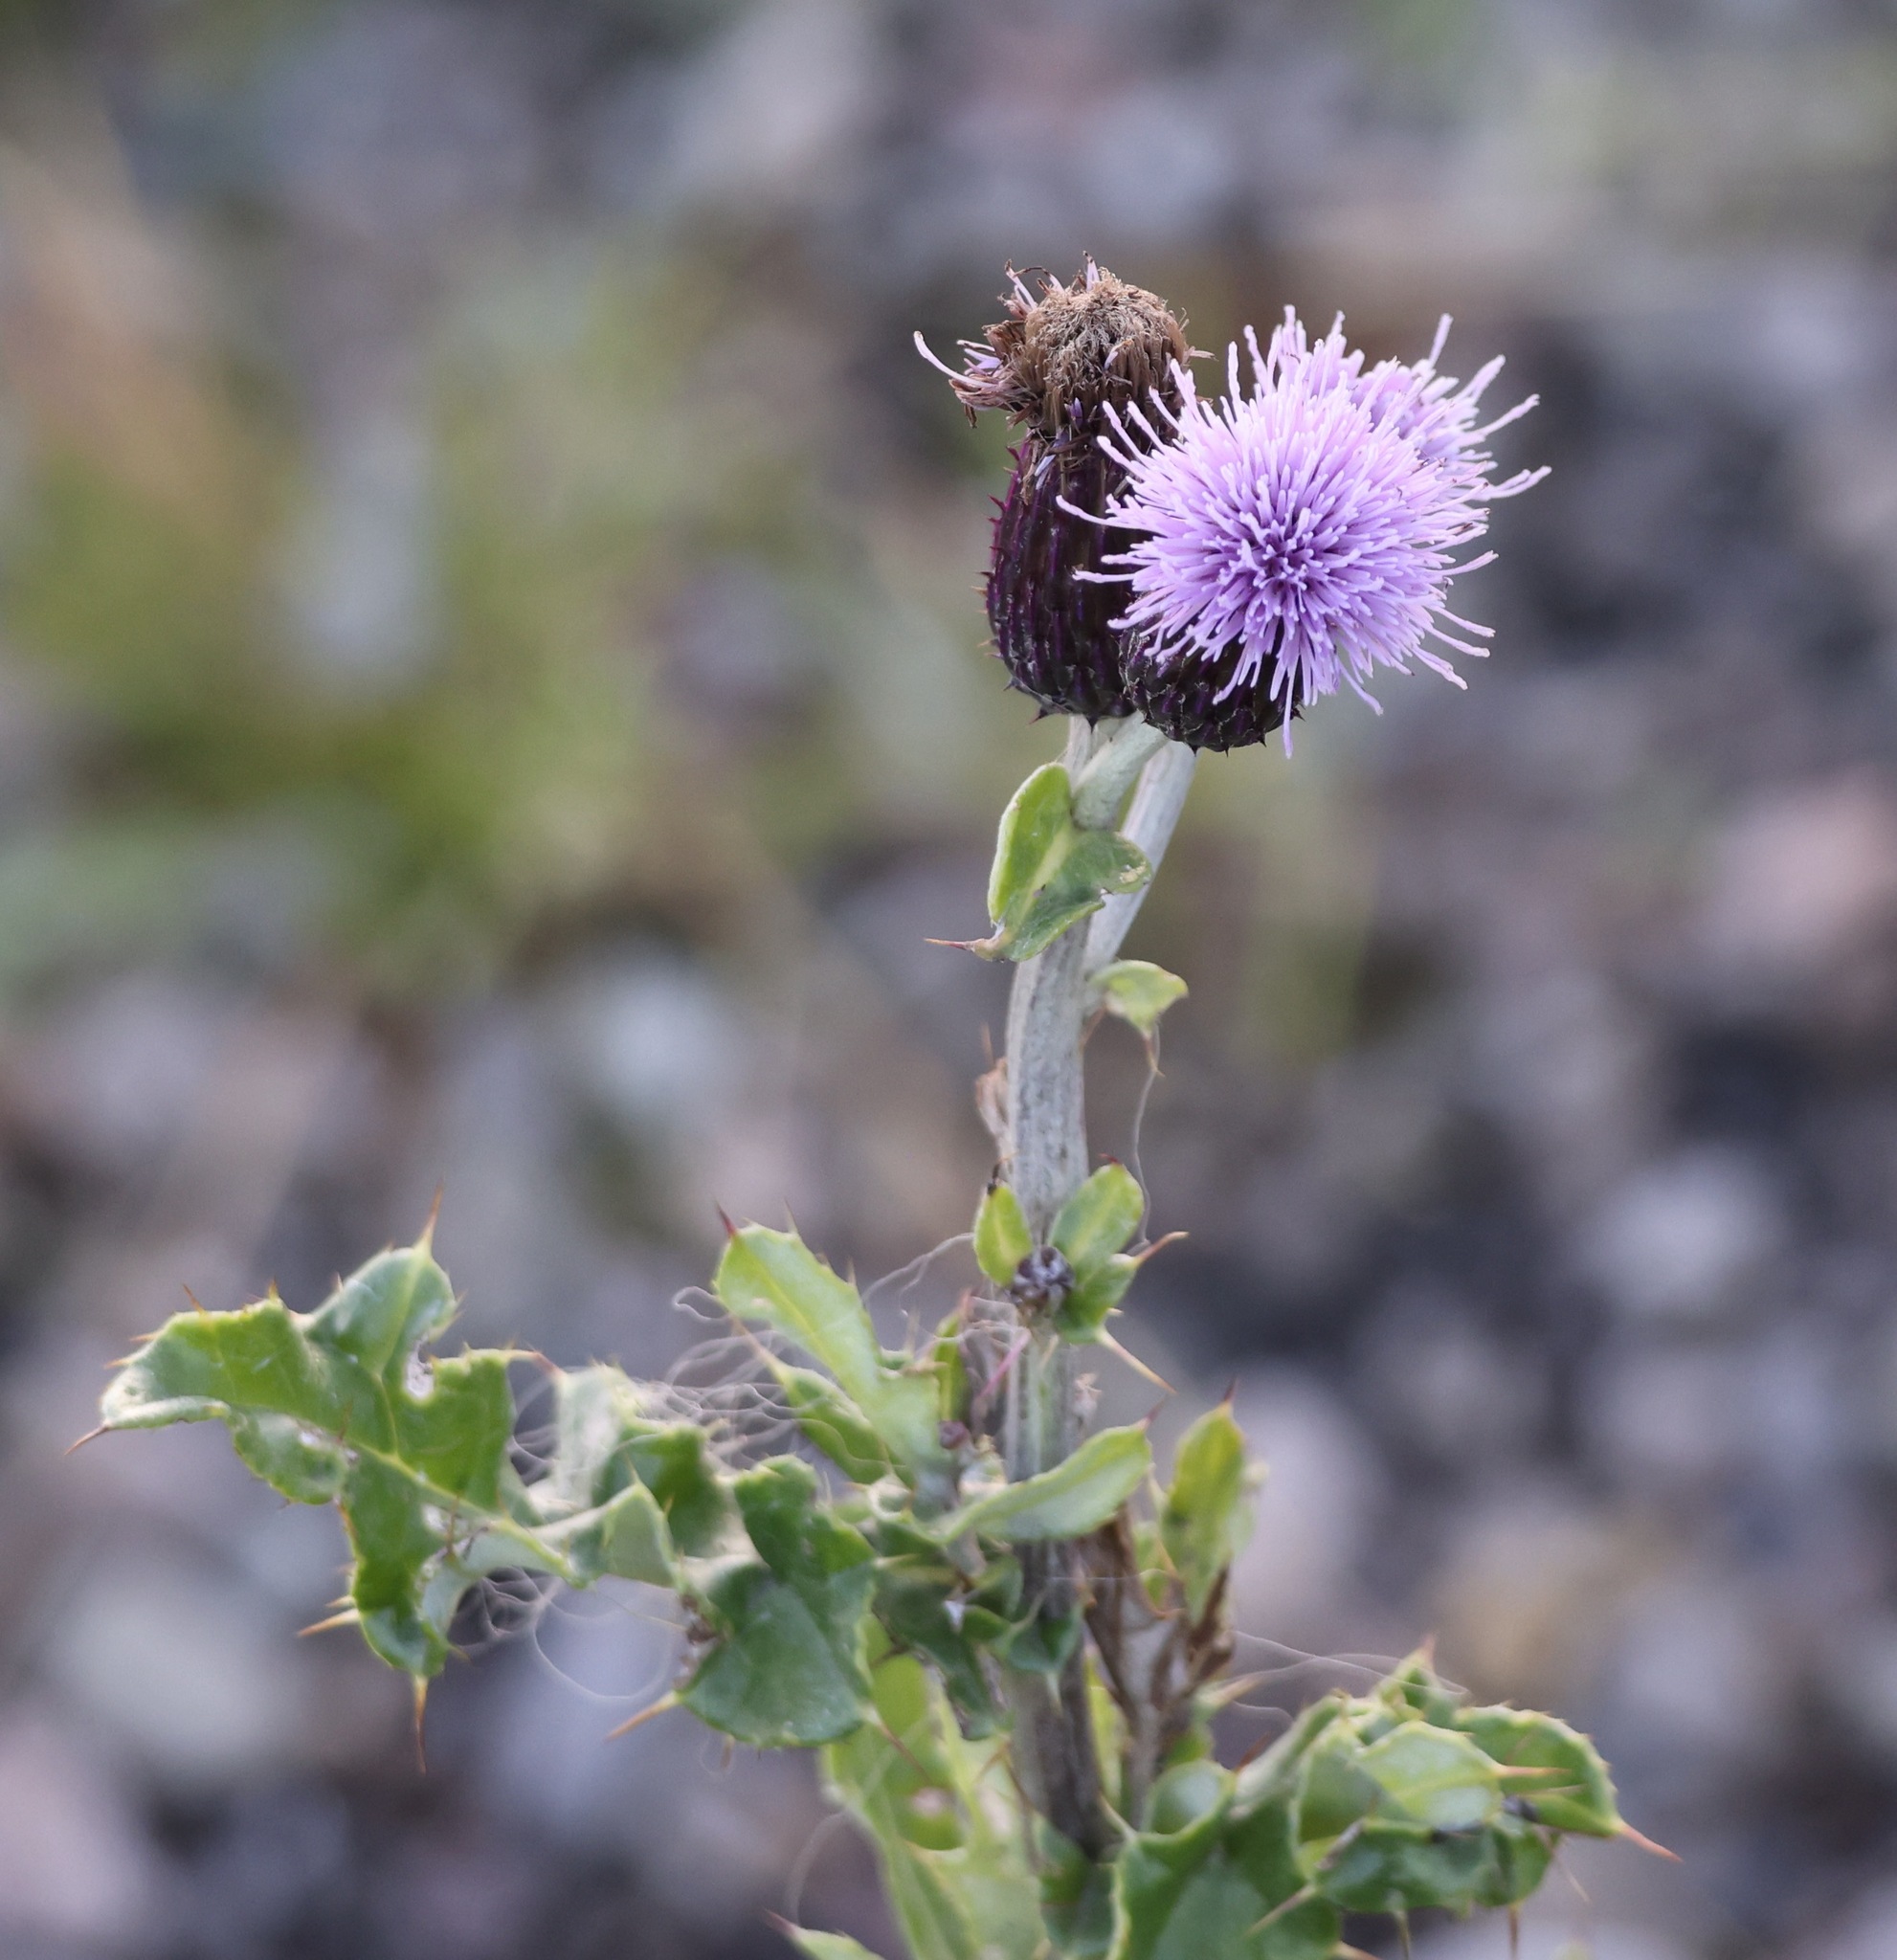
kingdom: Plantae
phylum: Tracheophyta
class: Magnoliopsida
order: Asterales
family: Asteraceae
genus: Cirsium
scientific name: Cirsium arvense
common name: Creeping thistle
